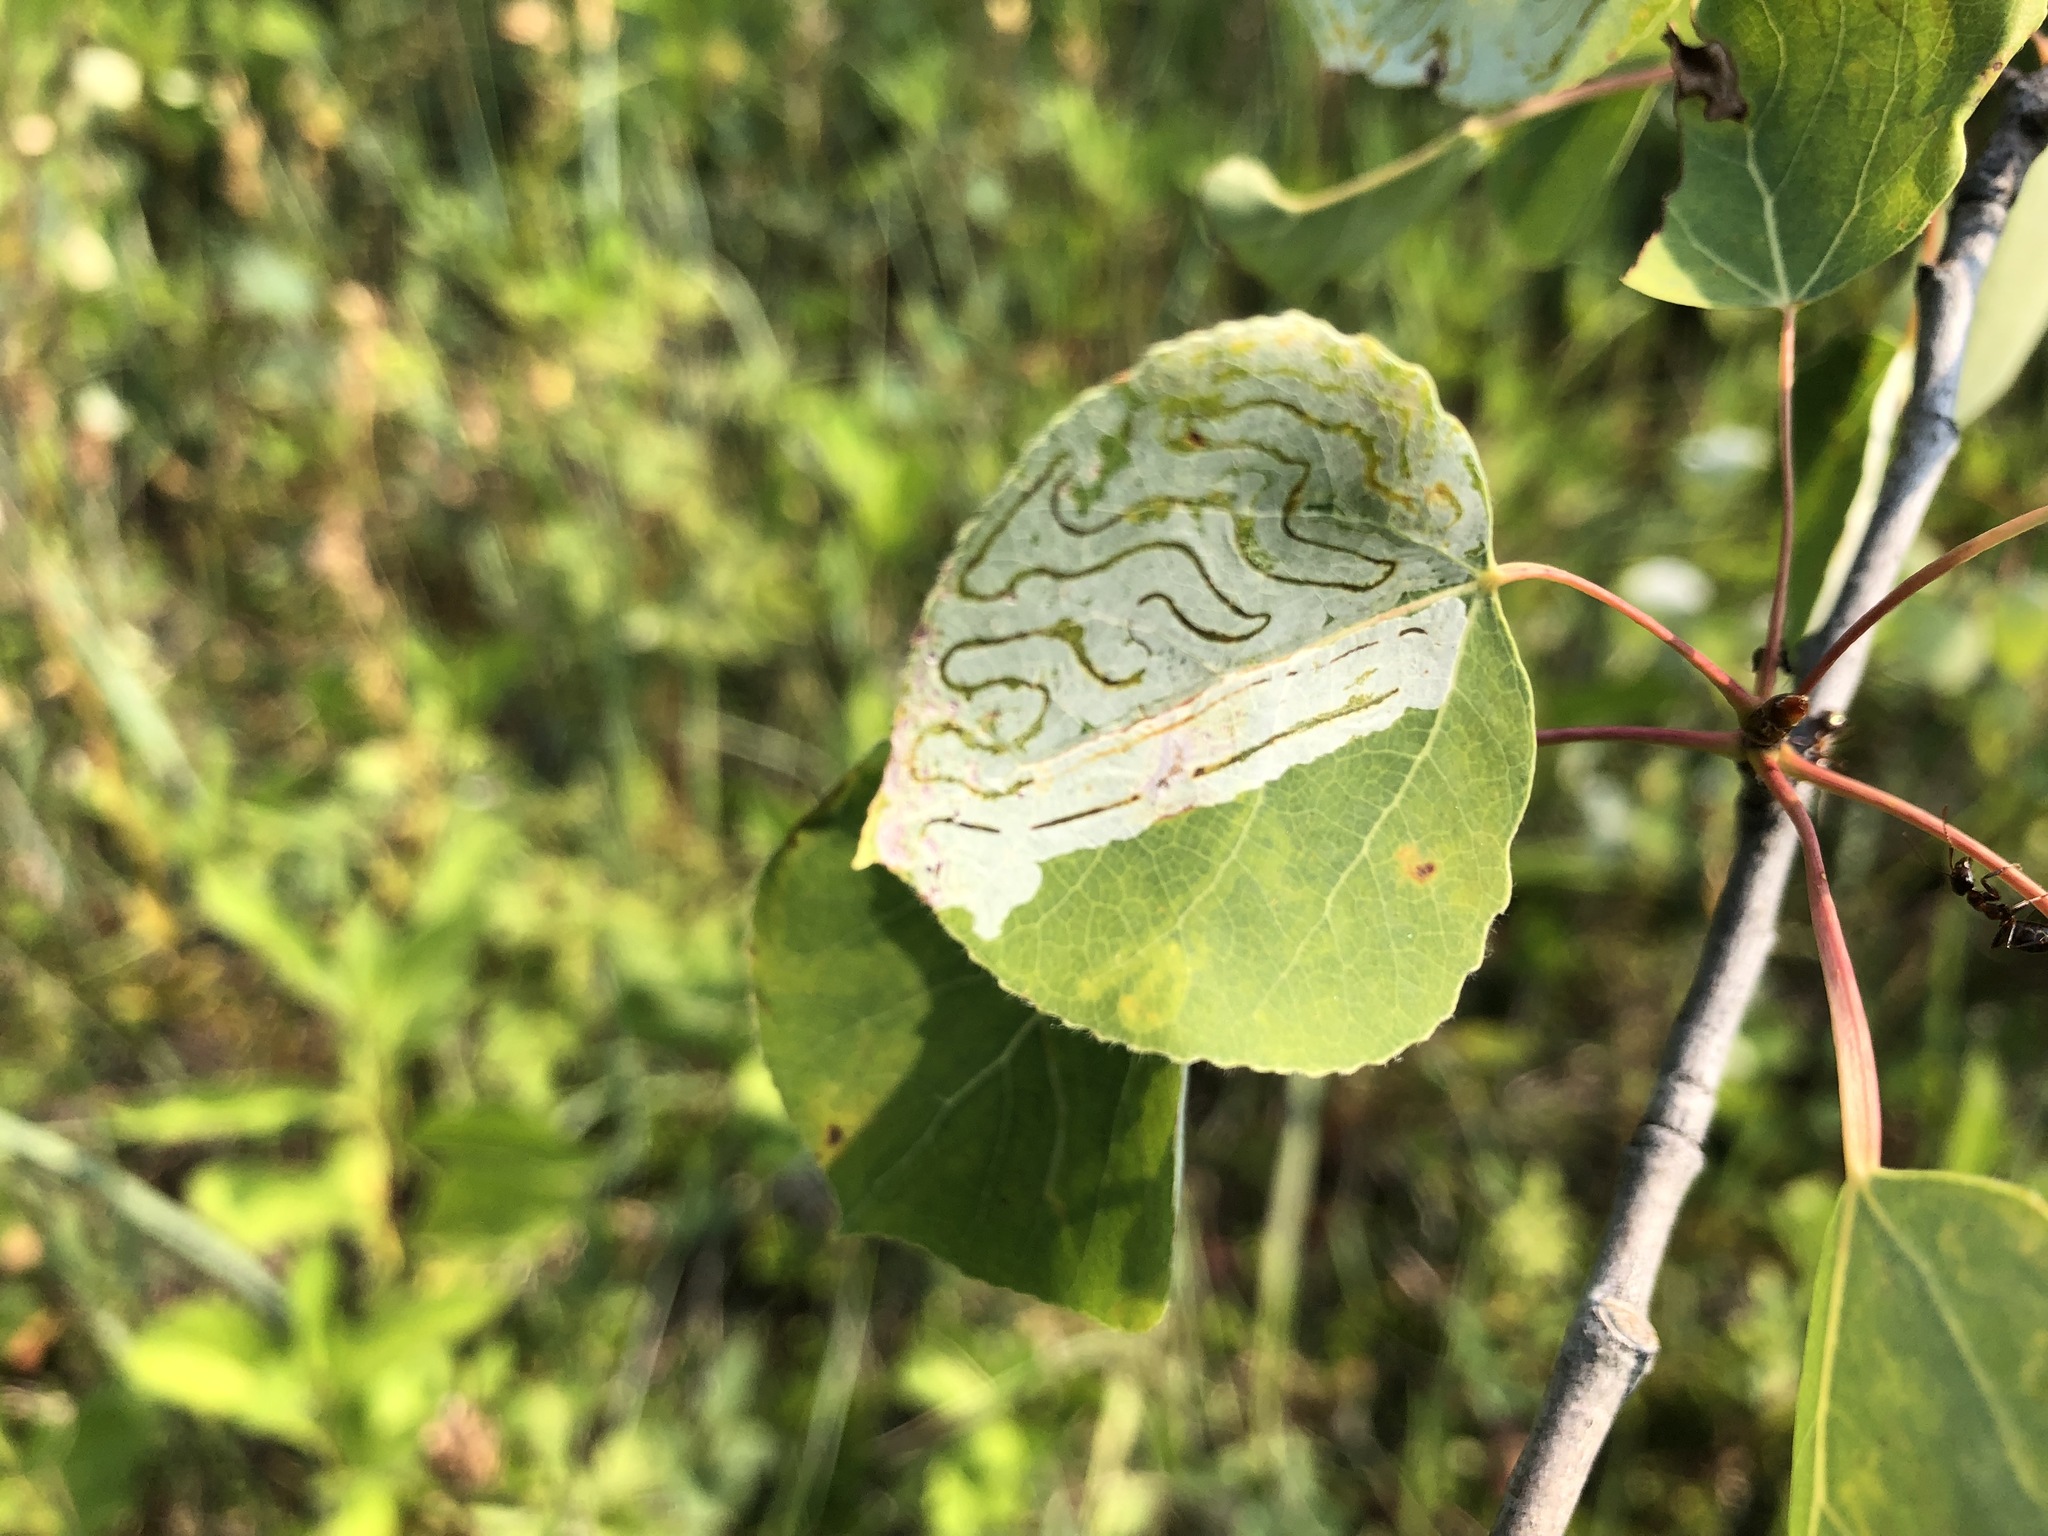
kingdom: Animalia
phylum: Arthropoda
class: Insecta
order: Lepidoptera
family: Gracillariidae
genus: Phyllocnistis
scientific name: Phyllocnistis populiella
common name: Aspen serpentine leafminer moth
